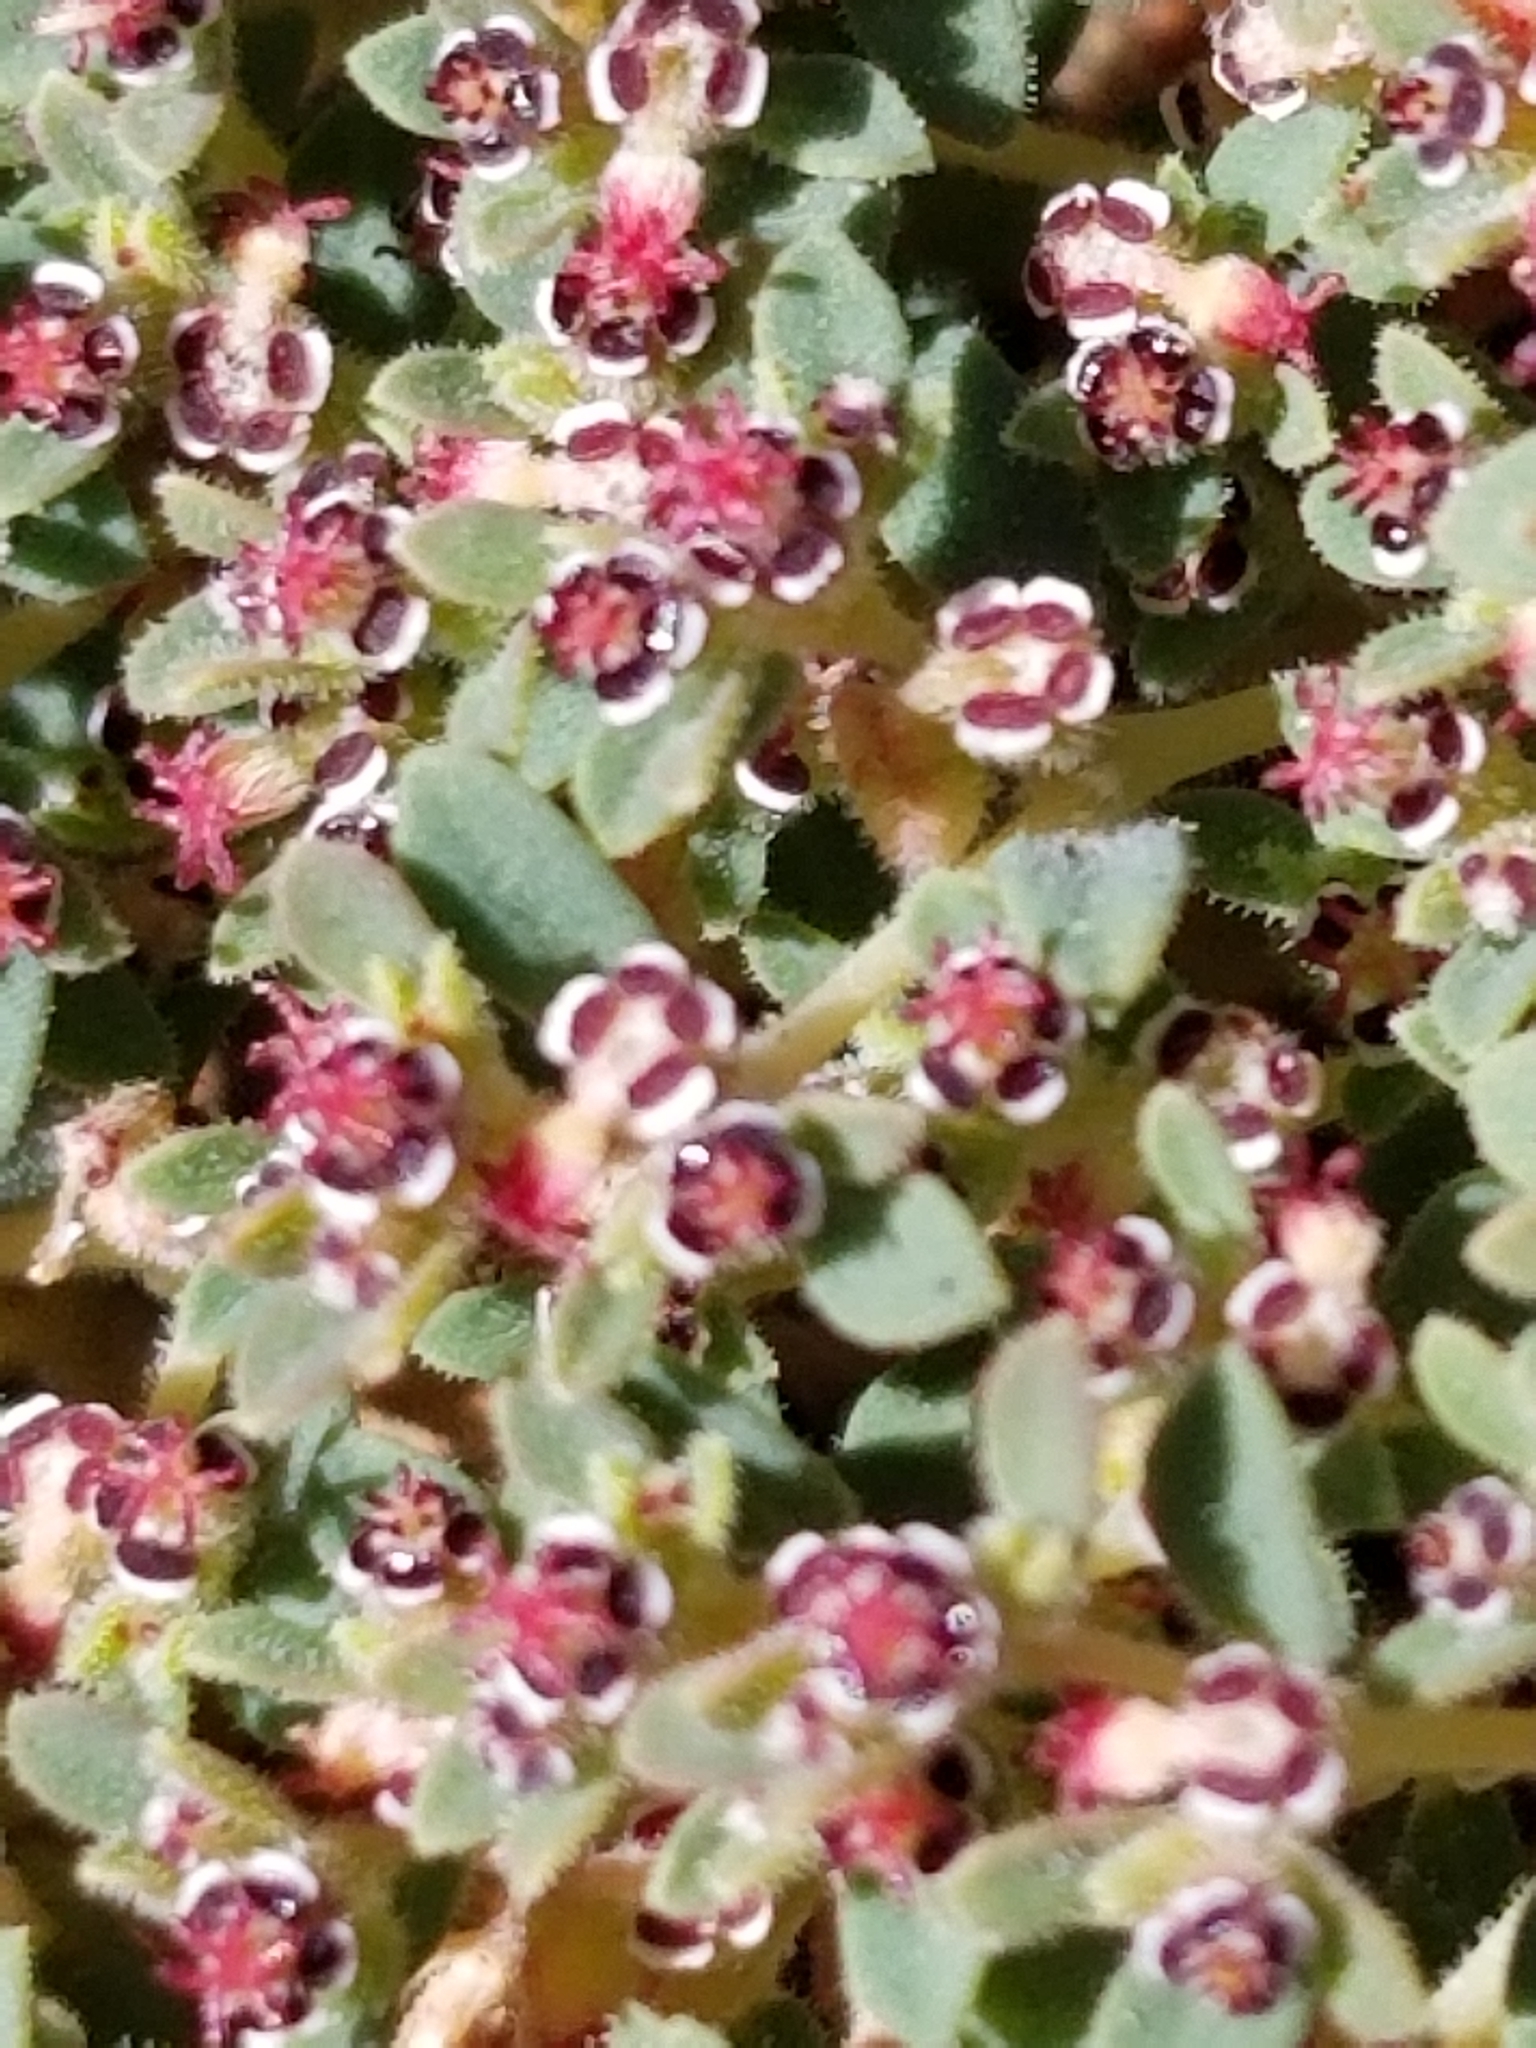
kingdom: Plantae
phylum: Tracheophyta
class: Magnoliopsida
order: Malpighiales
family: Euphorbiaceae
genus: Euphorbia
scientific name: Euphorbia polycarpa
